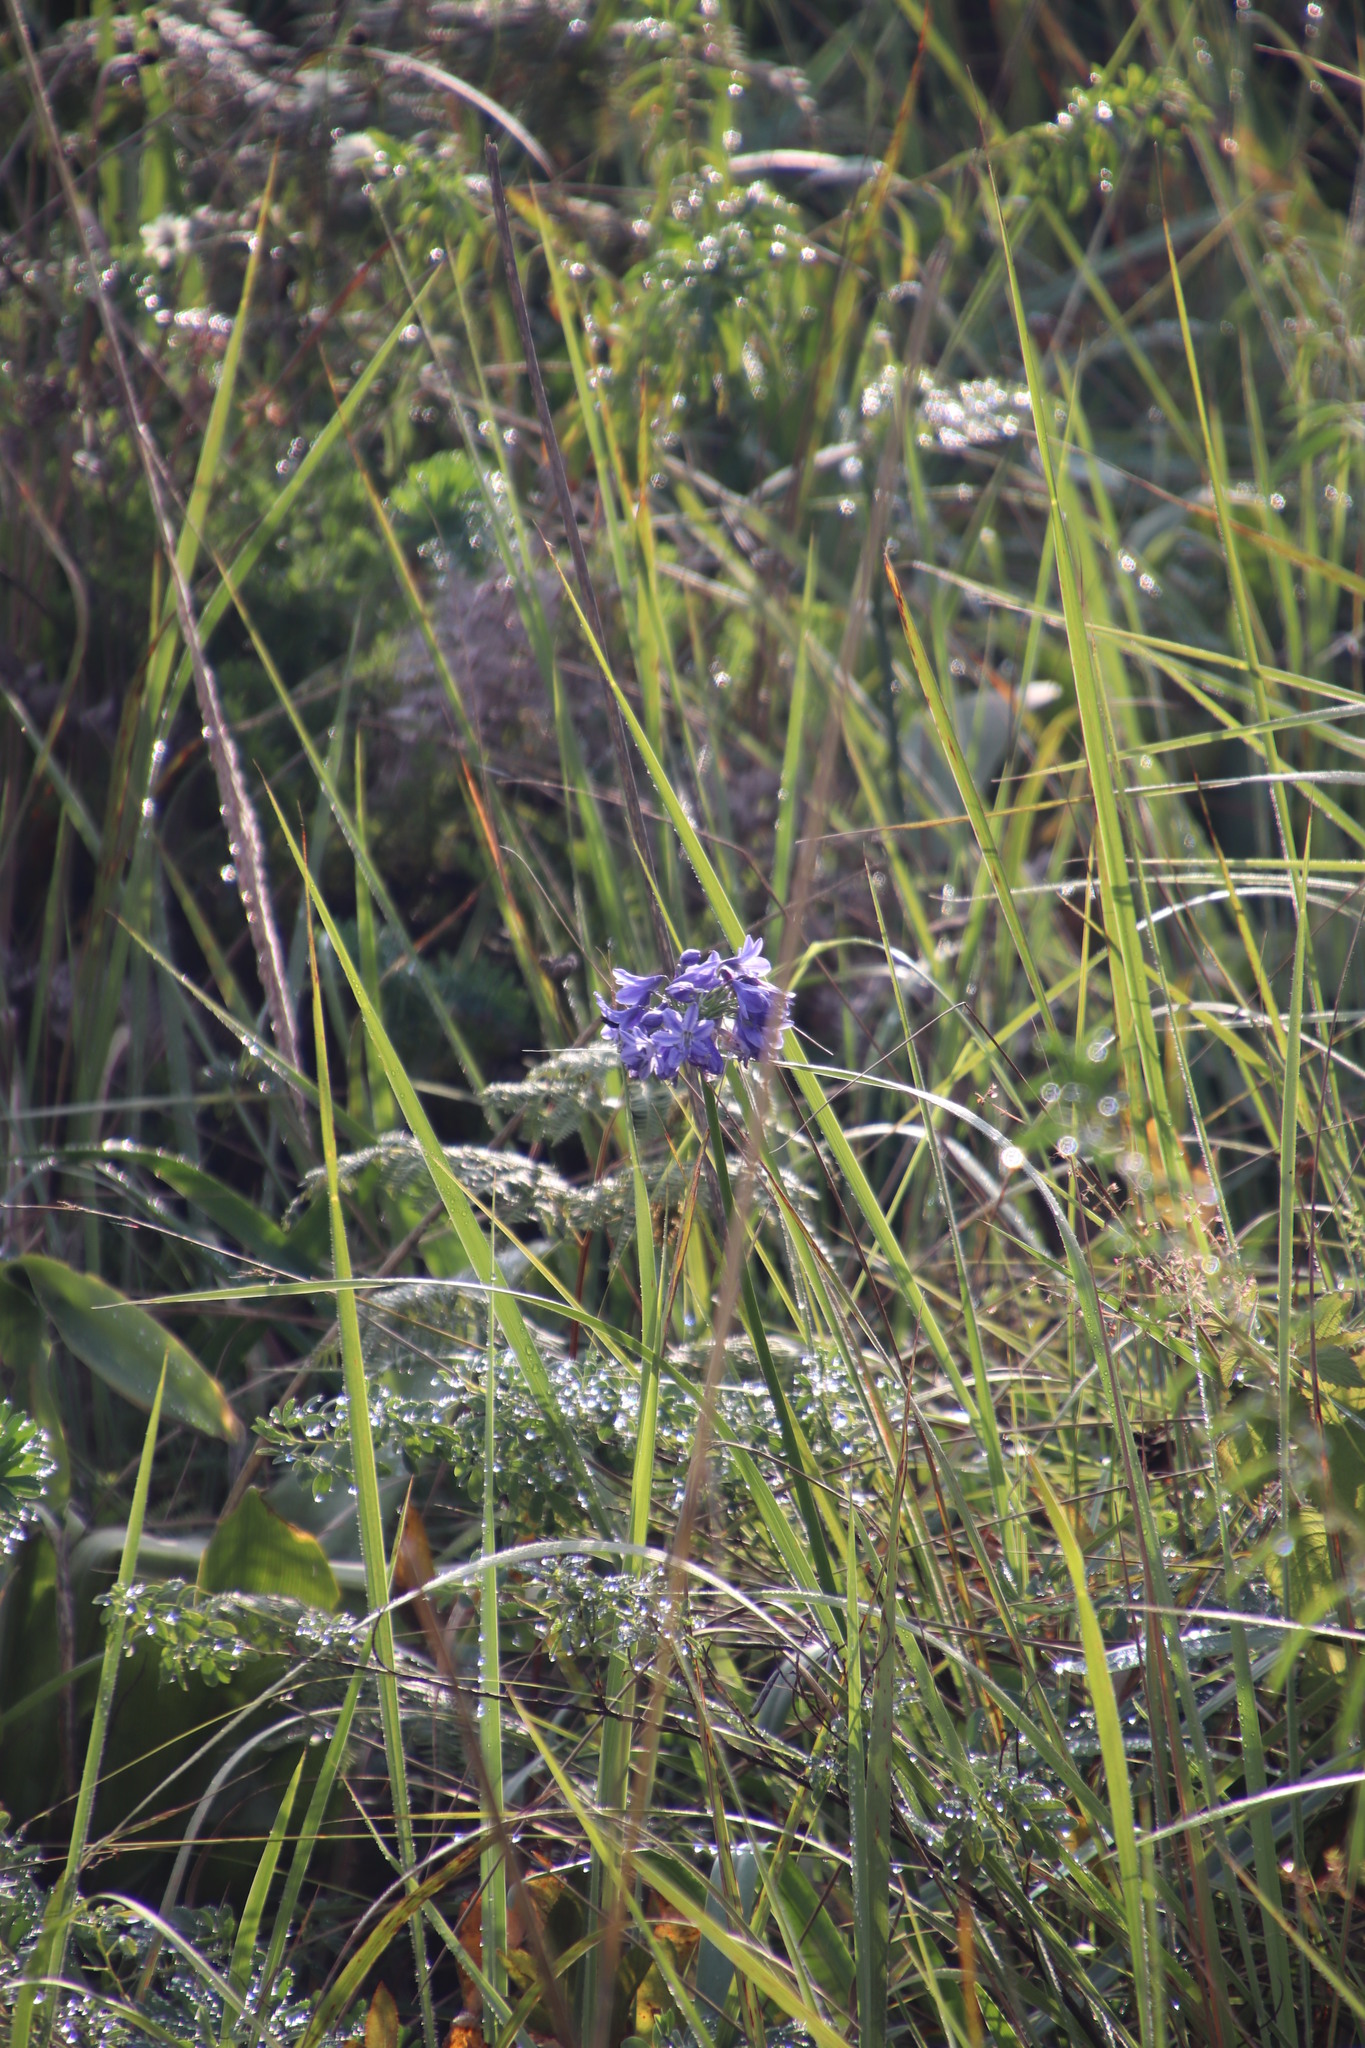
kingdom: Plantae
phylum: Tracheophyta
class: Liliopsida
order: Asparagales
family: Amaryllidaceae
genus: Agapanthus
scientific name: Agapanthus campanulatus
